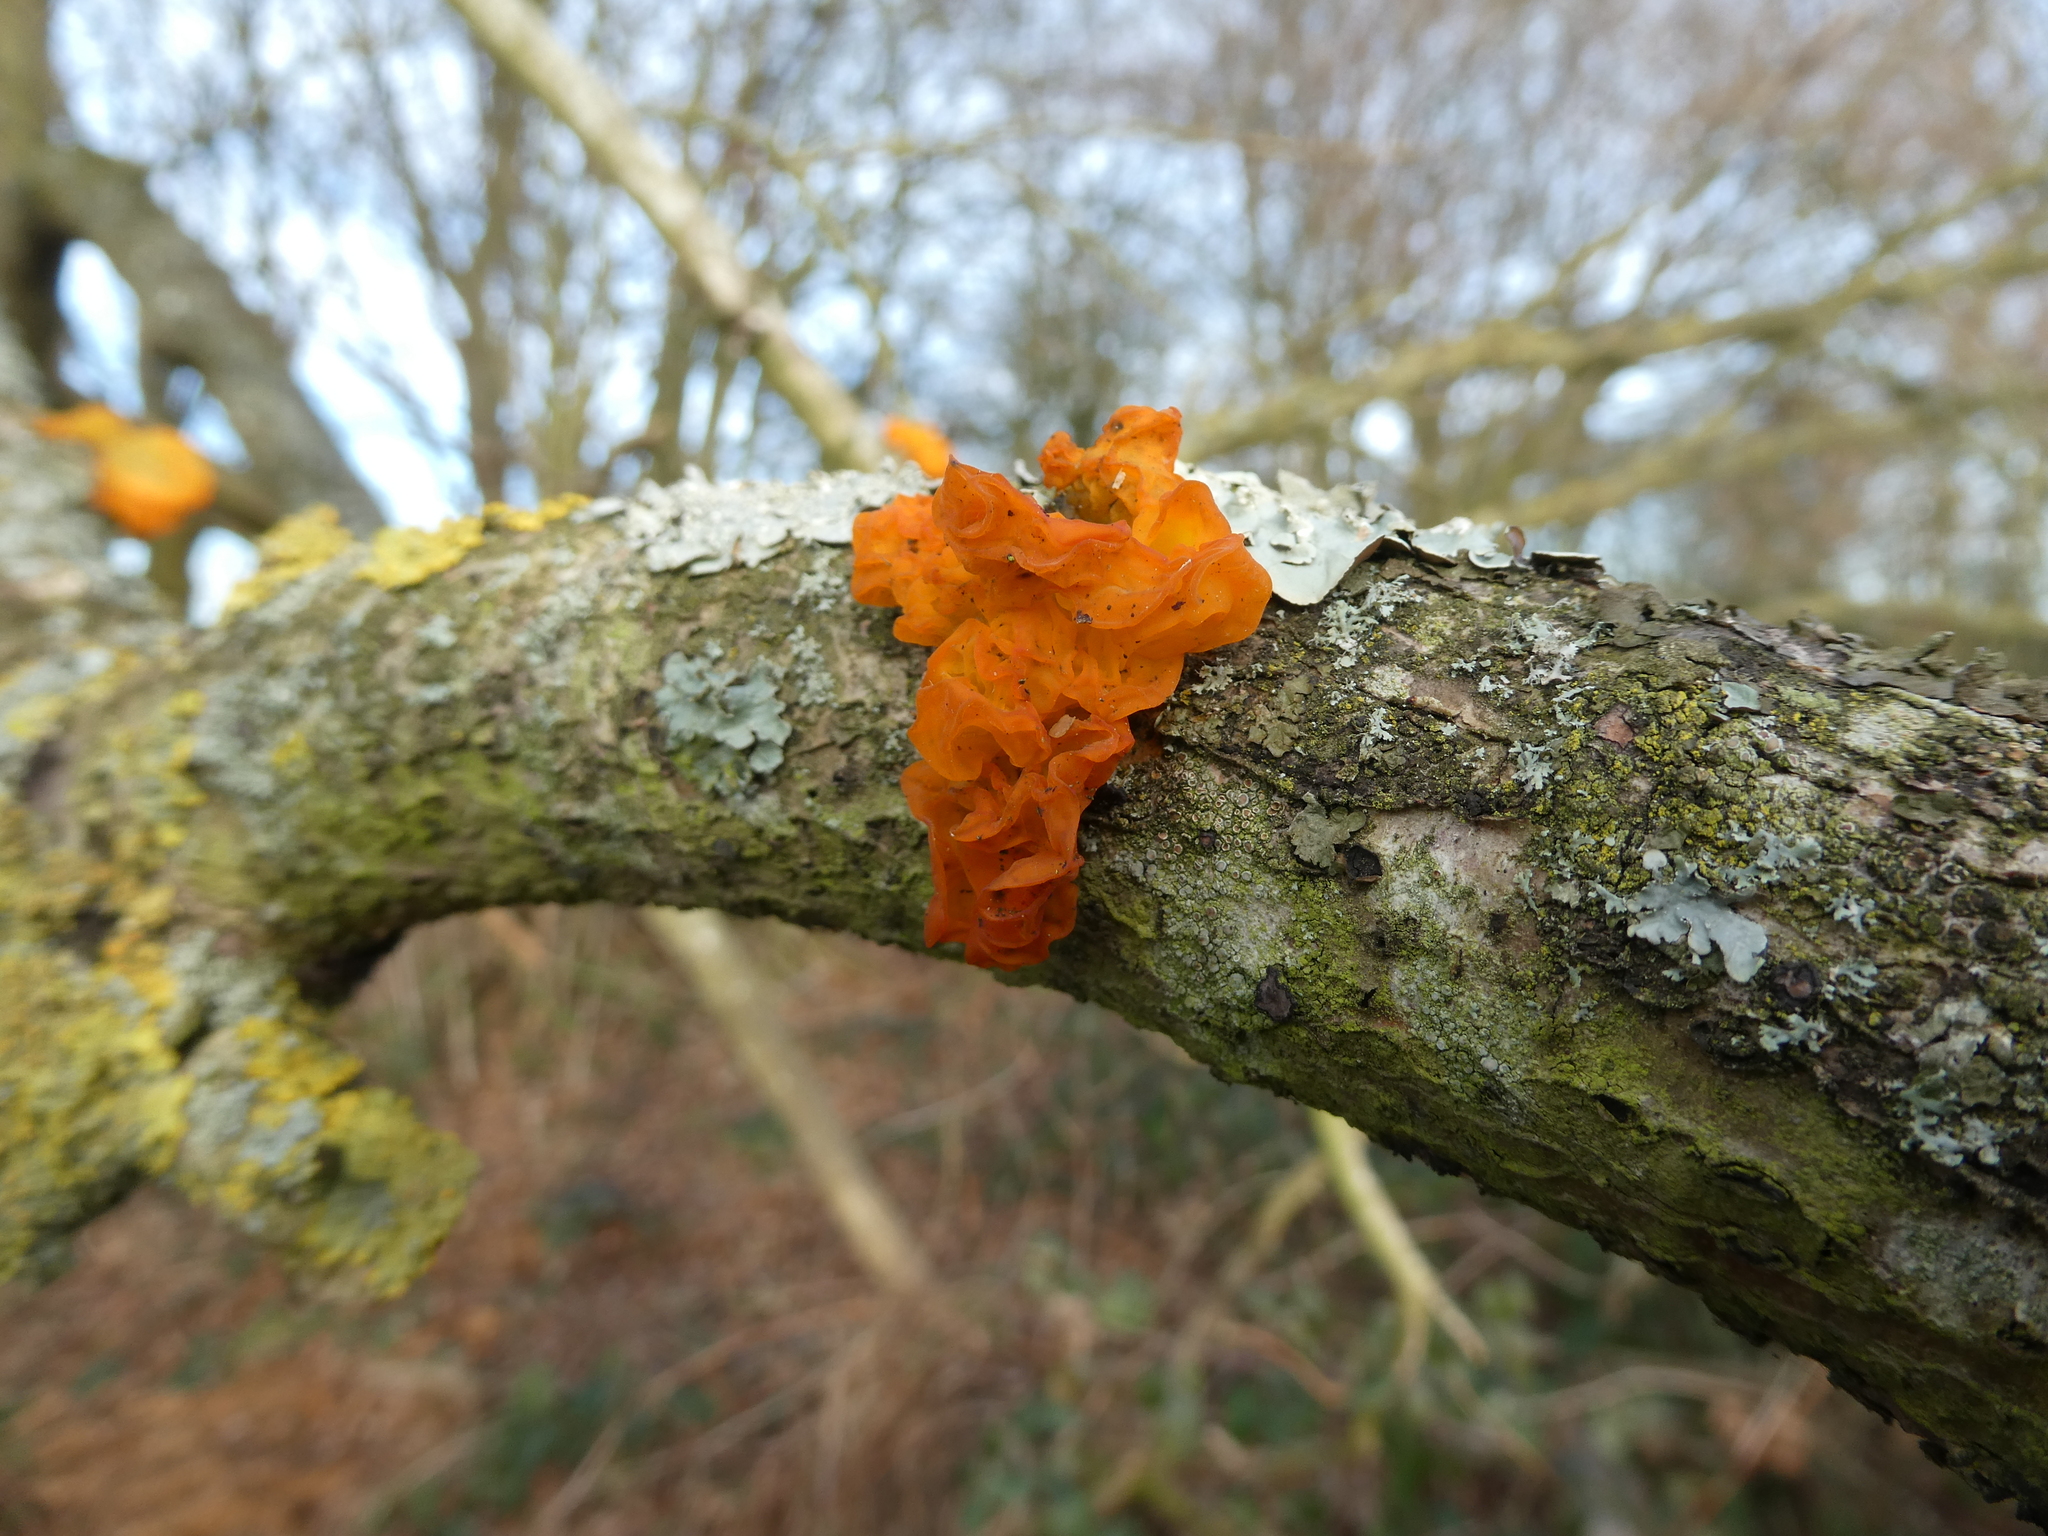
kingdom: Fungi
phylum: Basidiomycota
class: Tremellomycetes
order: Tremellales
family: Tremellaceae
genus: Tremella
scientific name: Tremella mesenterica
